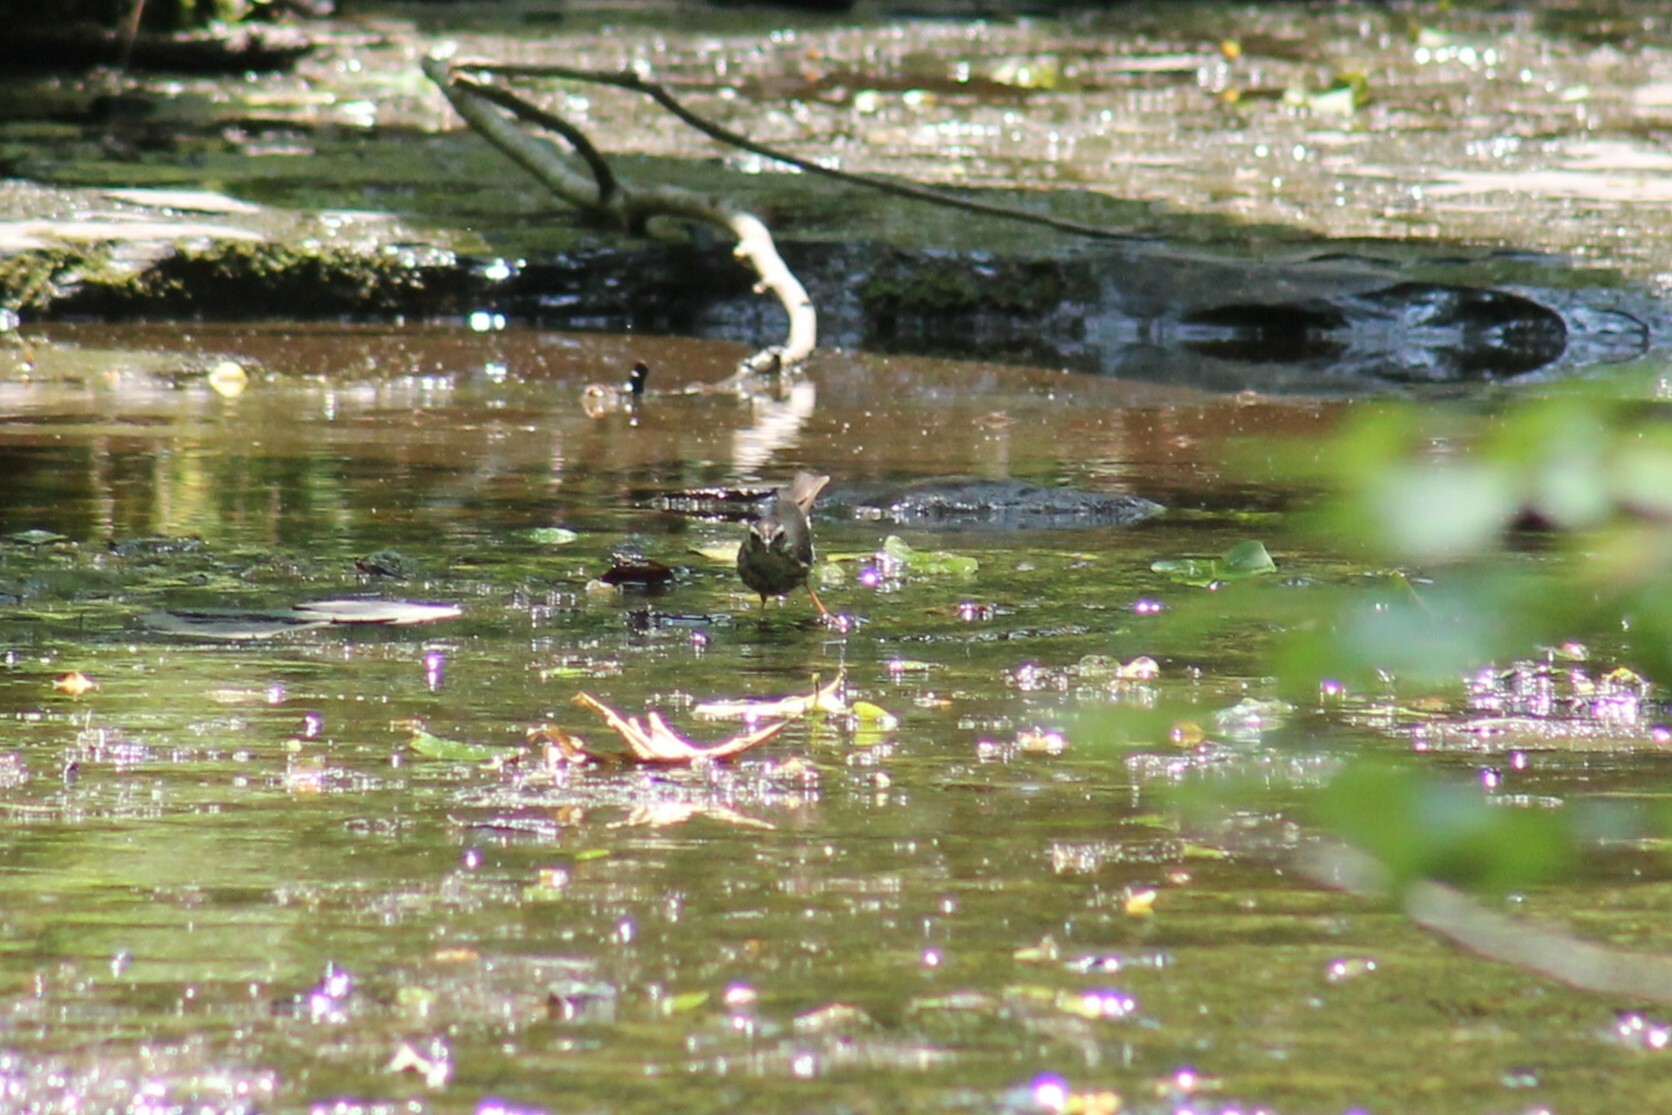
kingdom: Animalia
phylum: Chordata
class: Aves
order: Passeriformes
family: Parulidae
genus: Parkesia
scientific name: Parkesia motacilla
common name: Louisiana waterthrush
